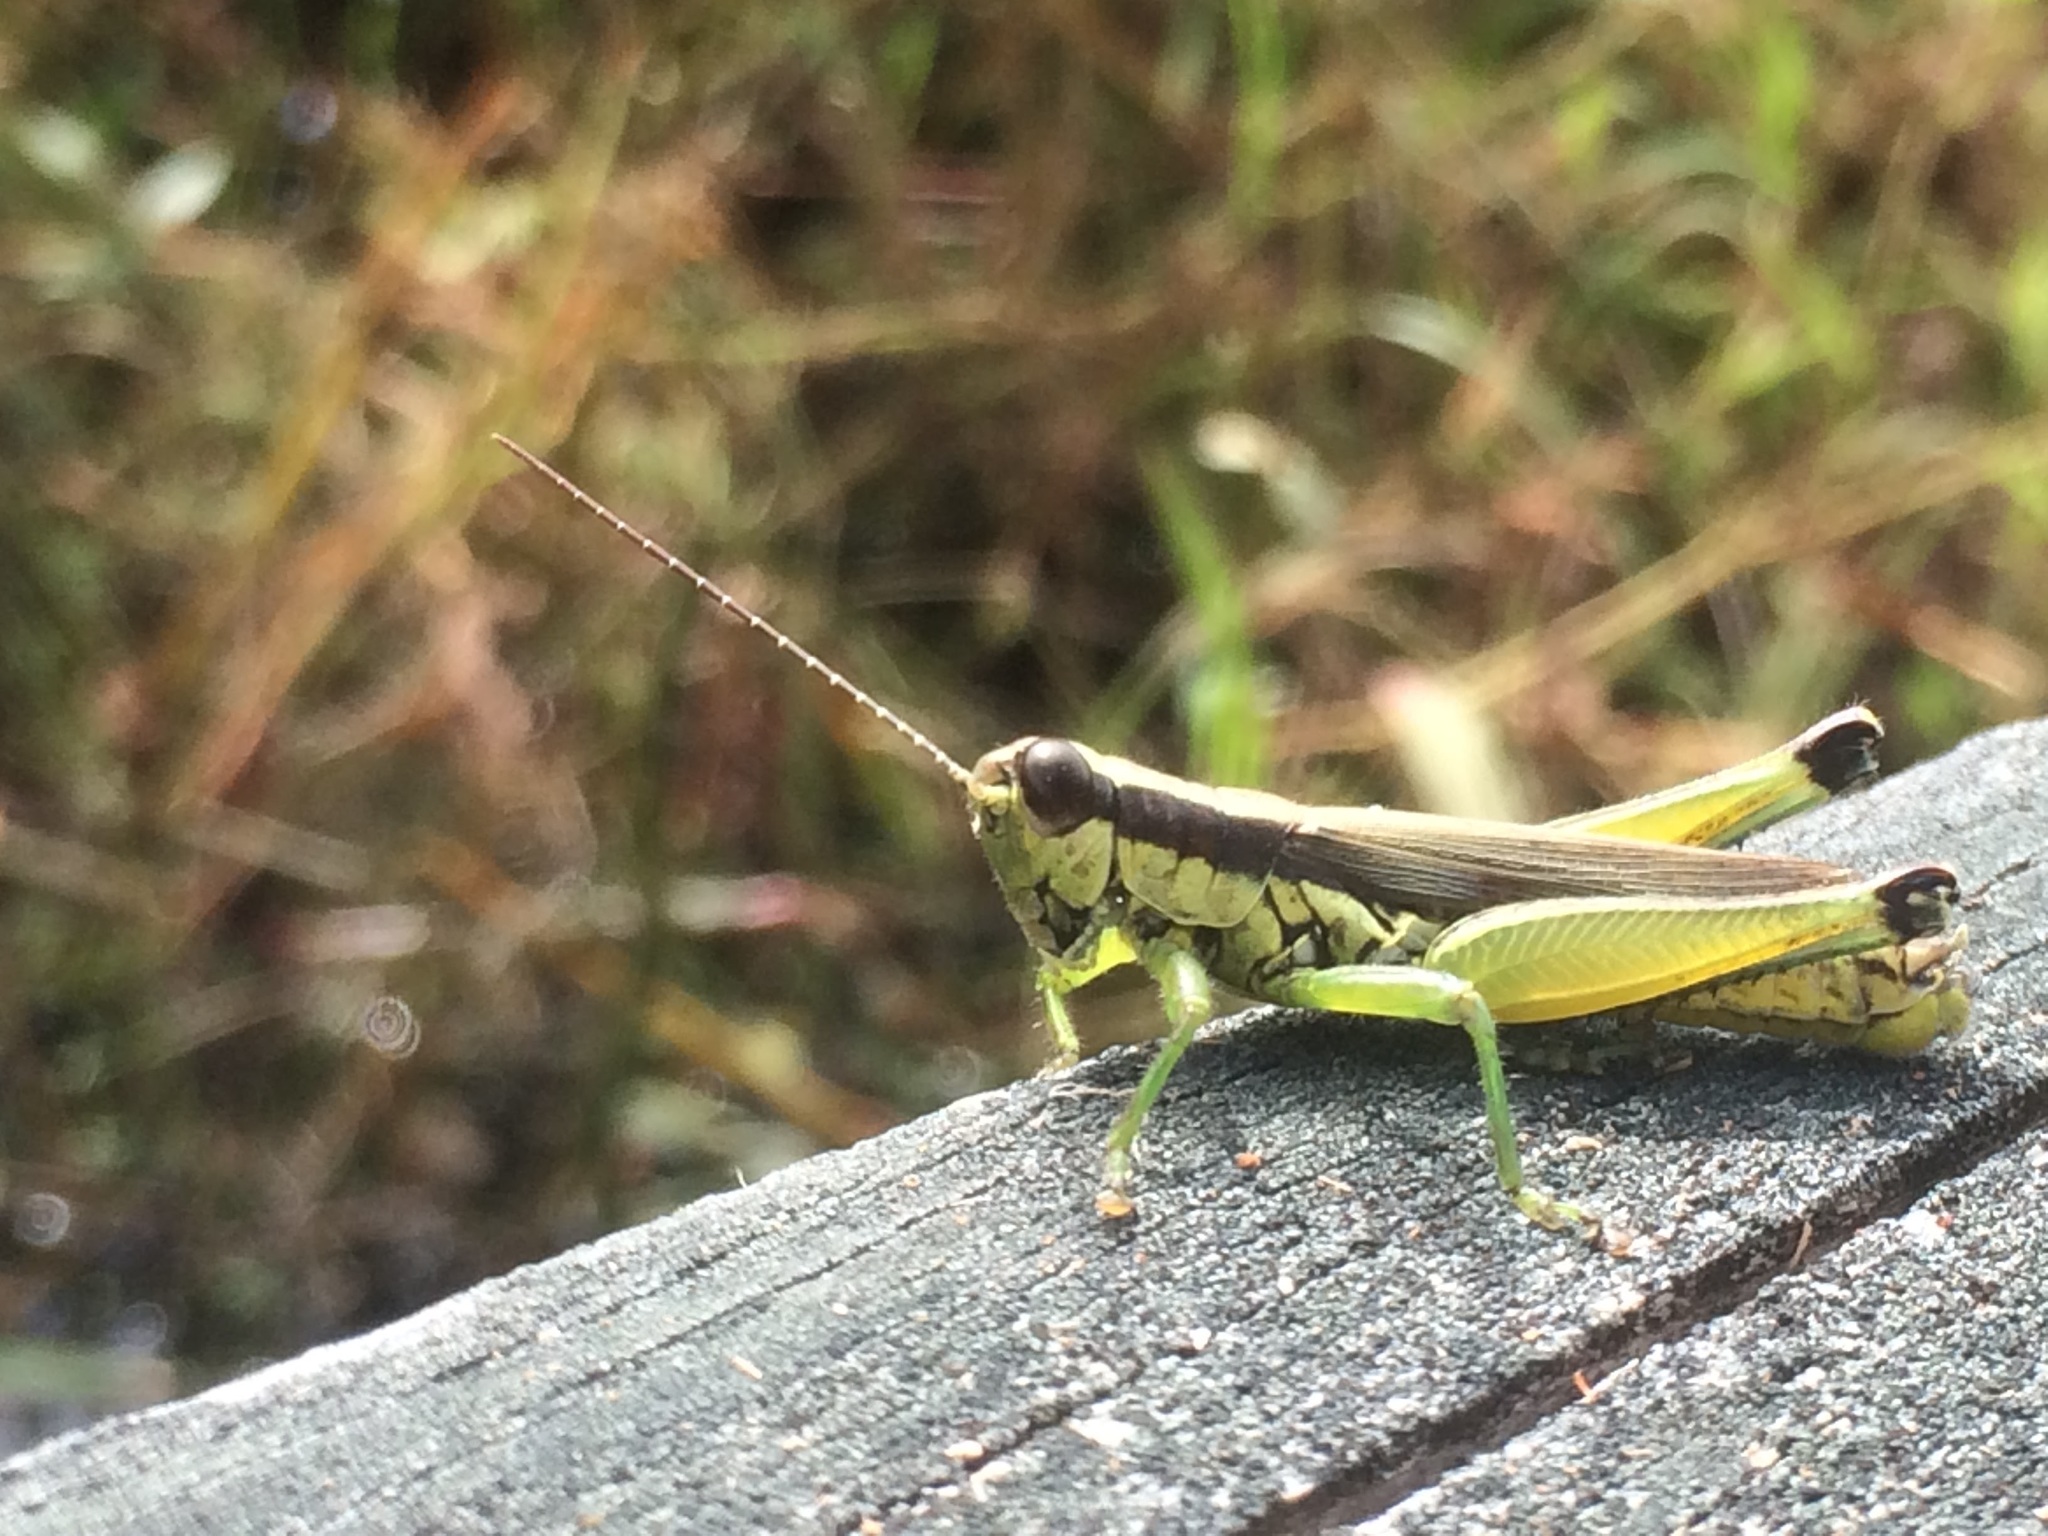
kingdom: Animalia
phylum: Arthropoda
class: Insecta
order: Orthoptera
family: Acrididae
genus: Paroxya
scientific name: Paroxya clavuligera
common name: Olive-green swamp grasshopper
